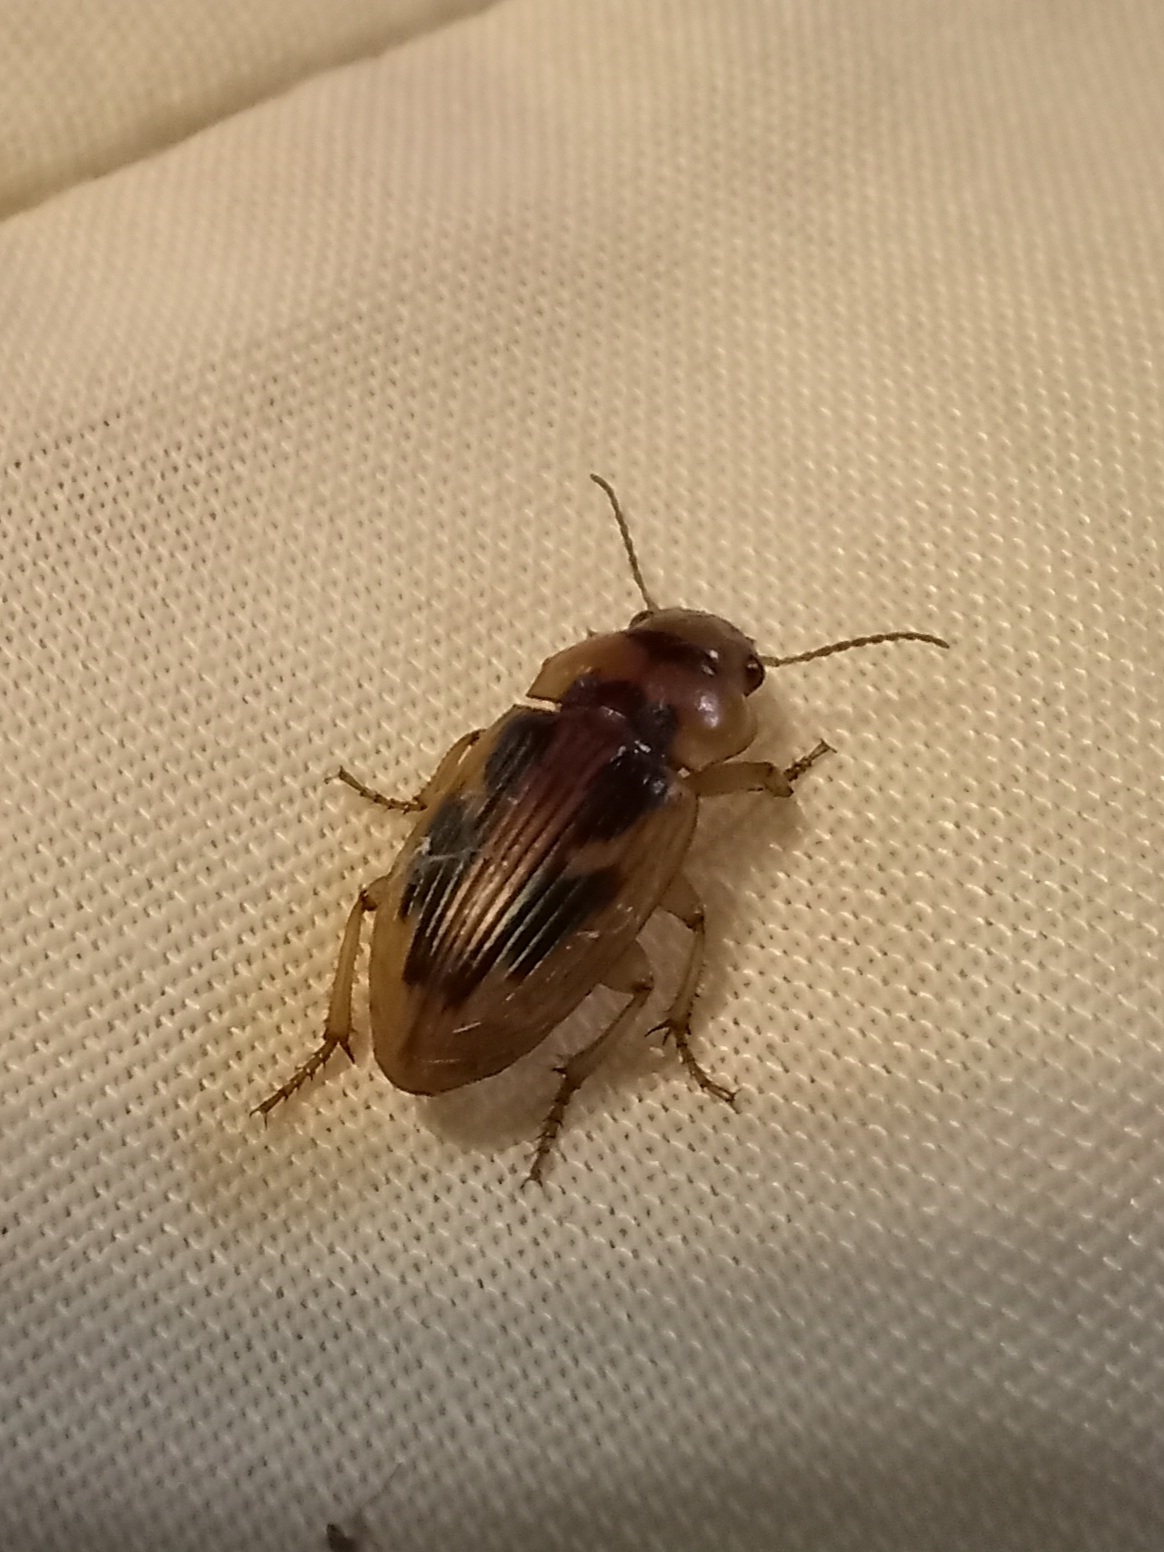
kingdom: Animalia
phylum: Arthropoda
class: Insecta
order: Coleoptera
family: Carabidae
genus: Bradybaenus
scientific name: Bradybaenus opulentus
